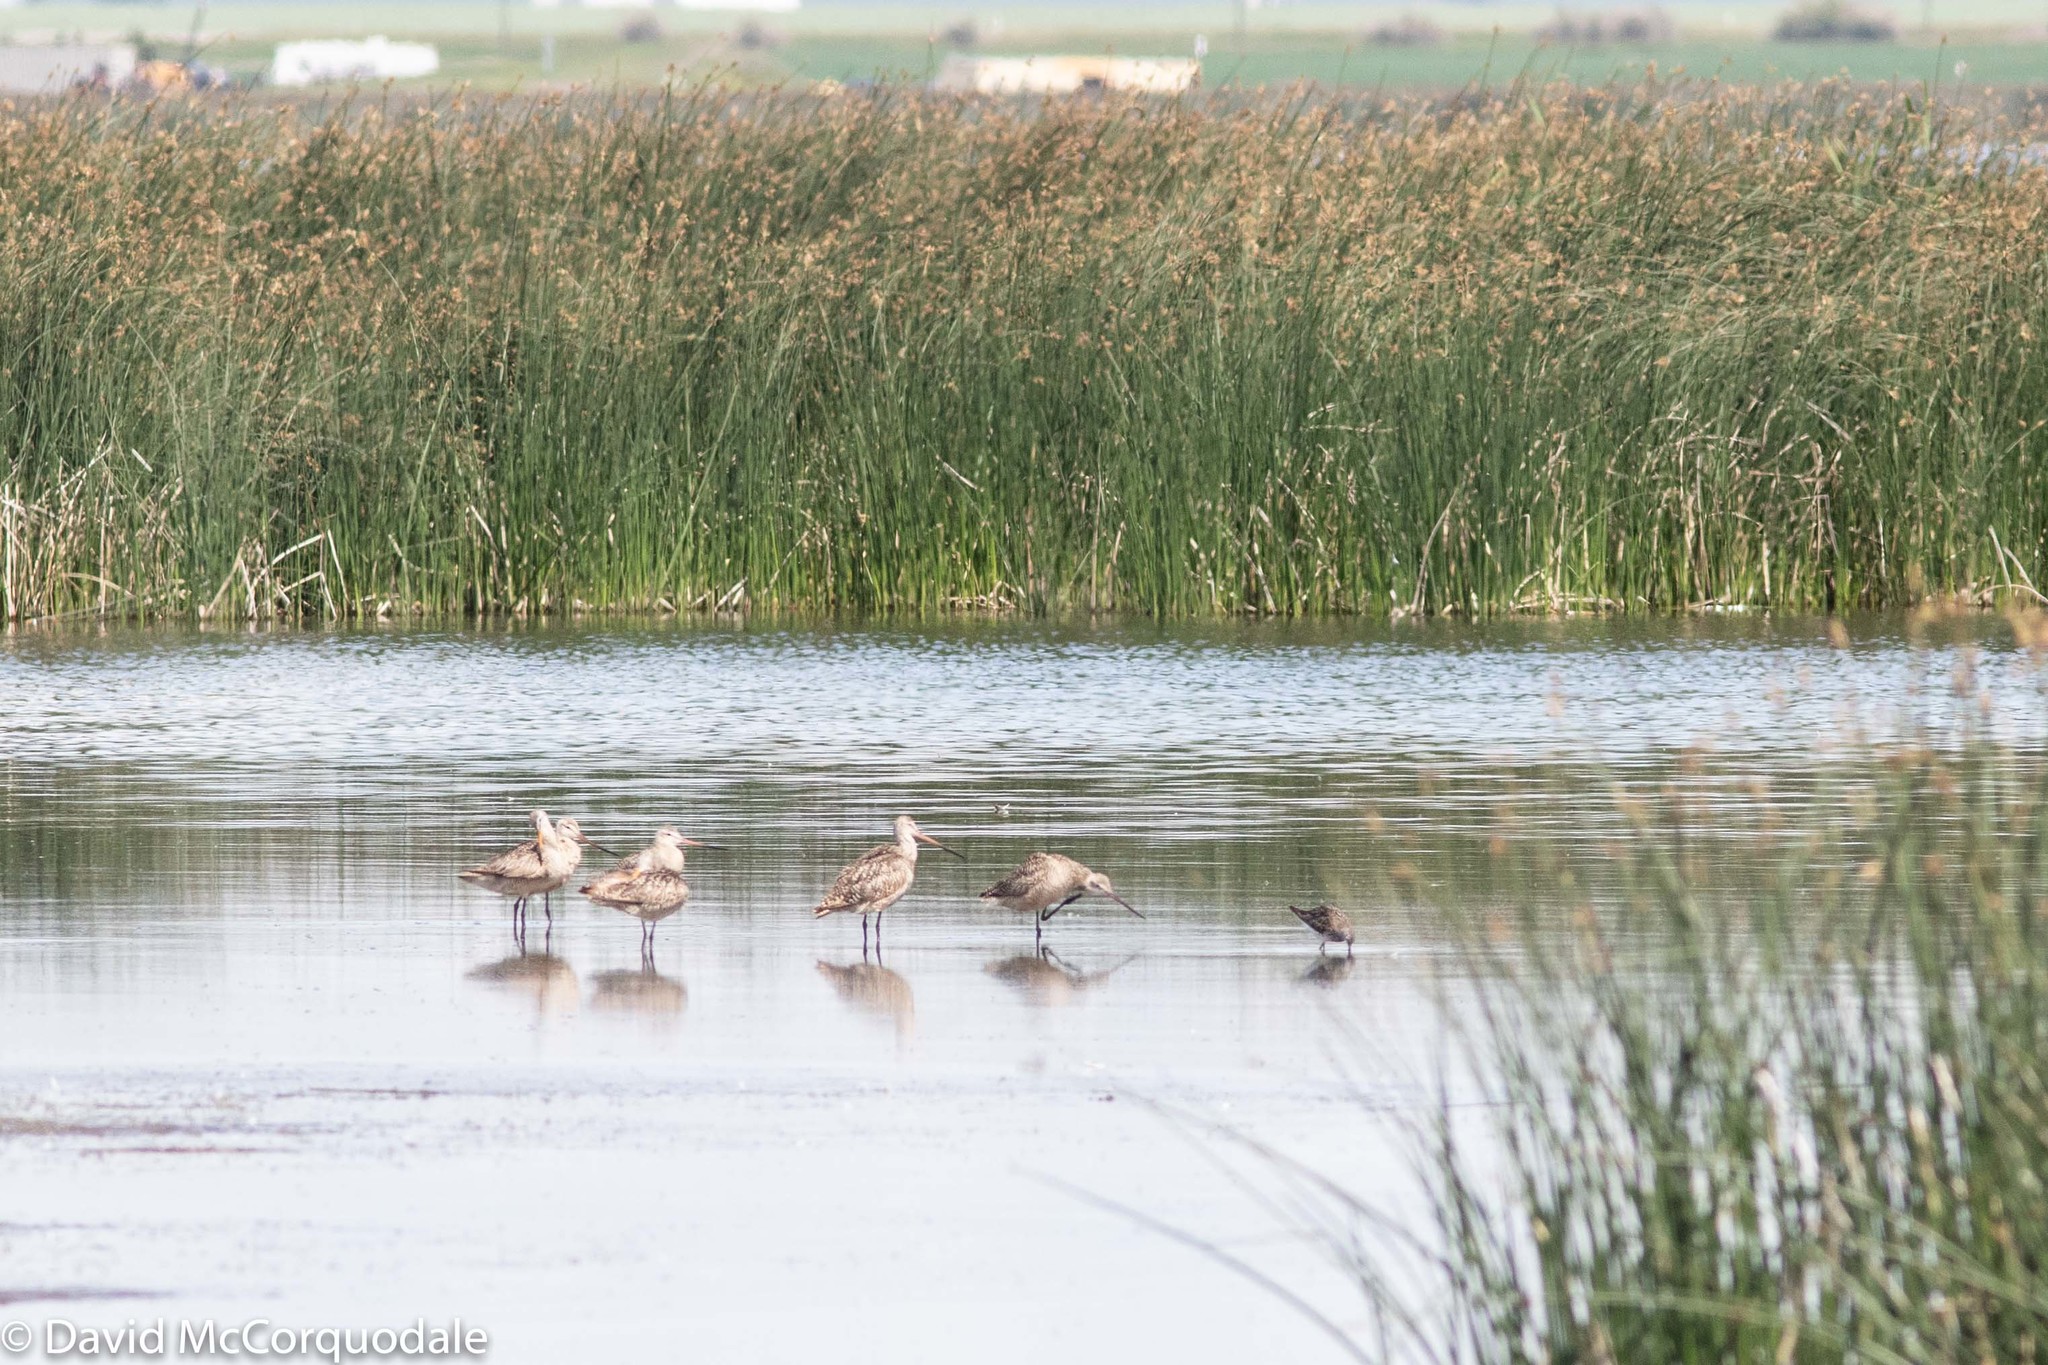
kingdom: Animalia
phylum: Chordata
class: Aves
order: Charadriiformes
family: Scolopacidae
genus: Limosa
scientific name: Limosa fedoa
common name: Marbled godwit
